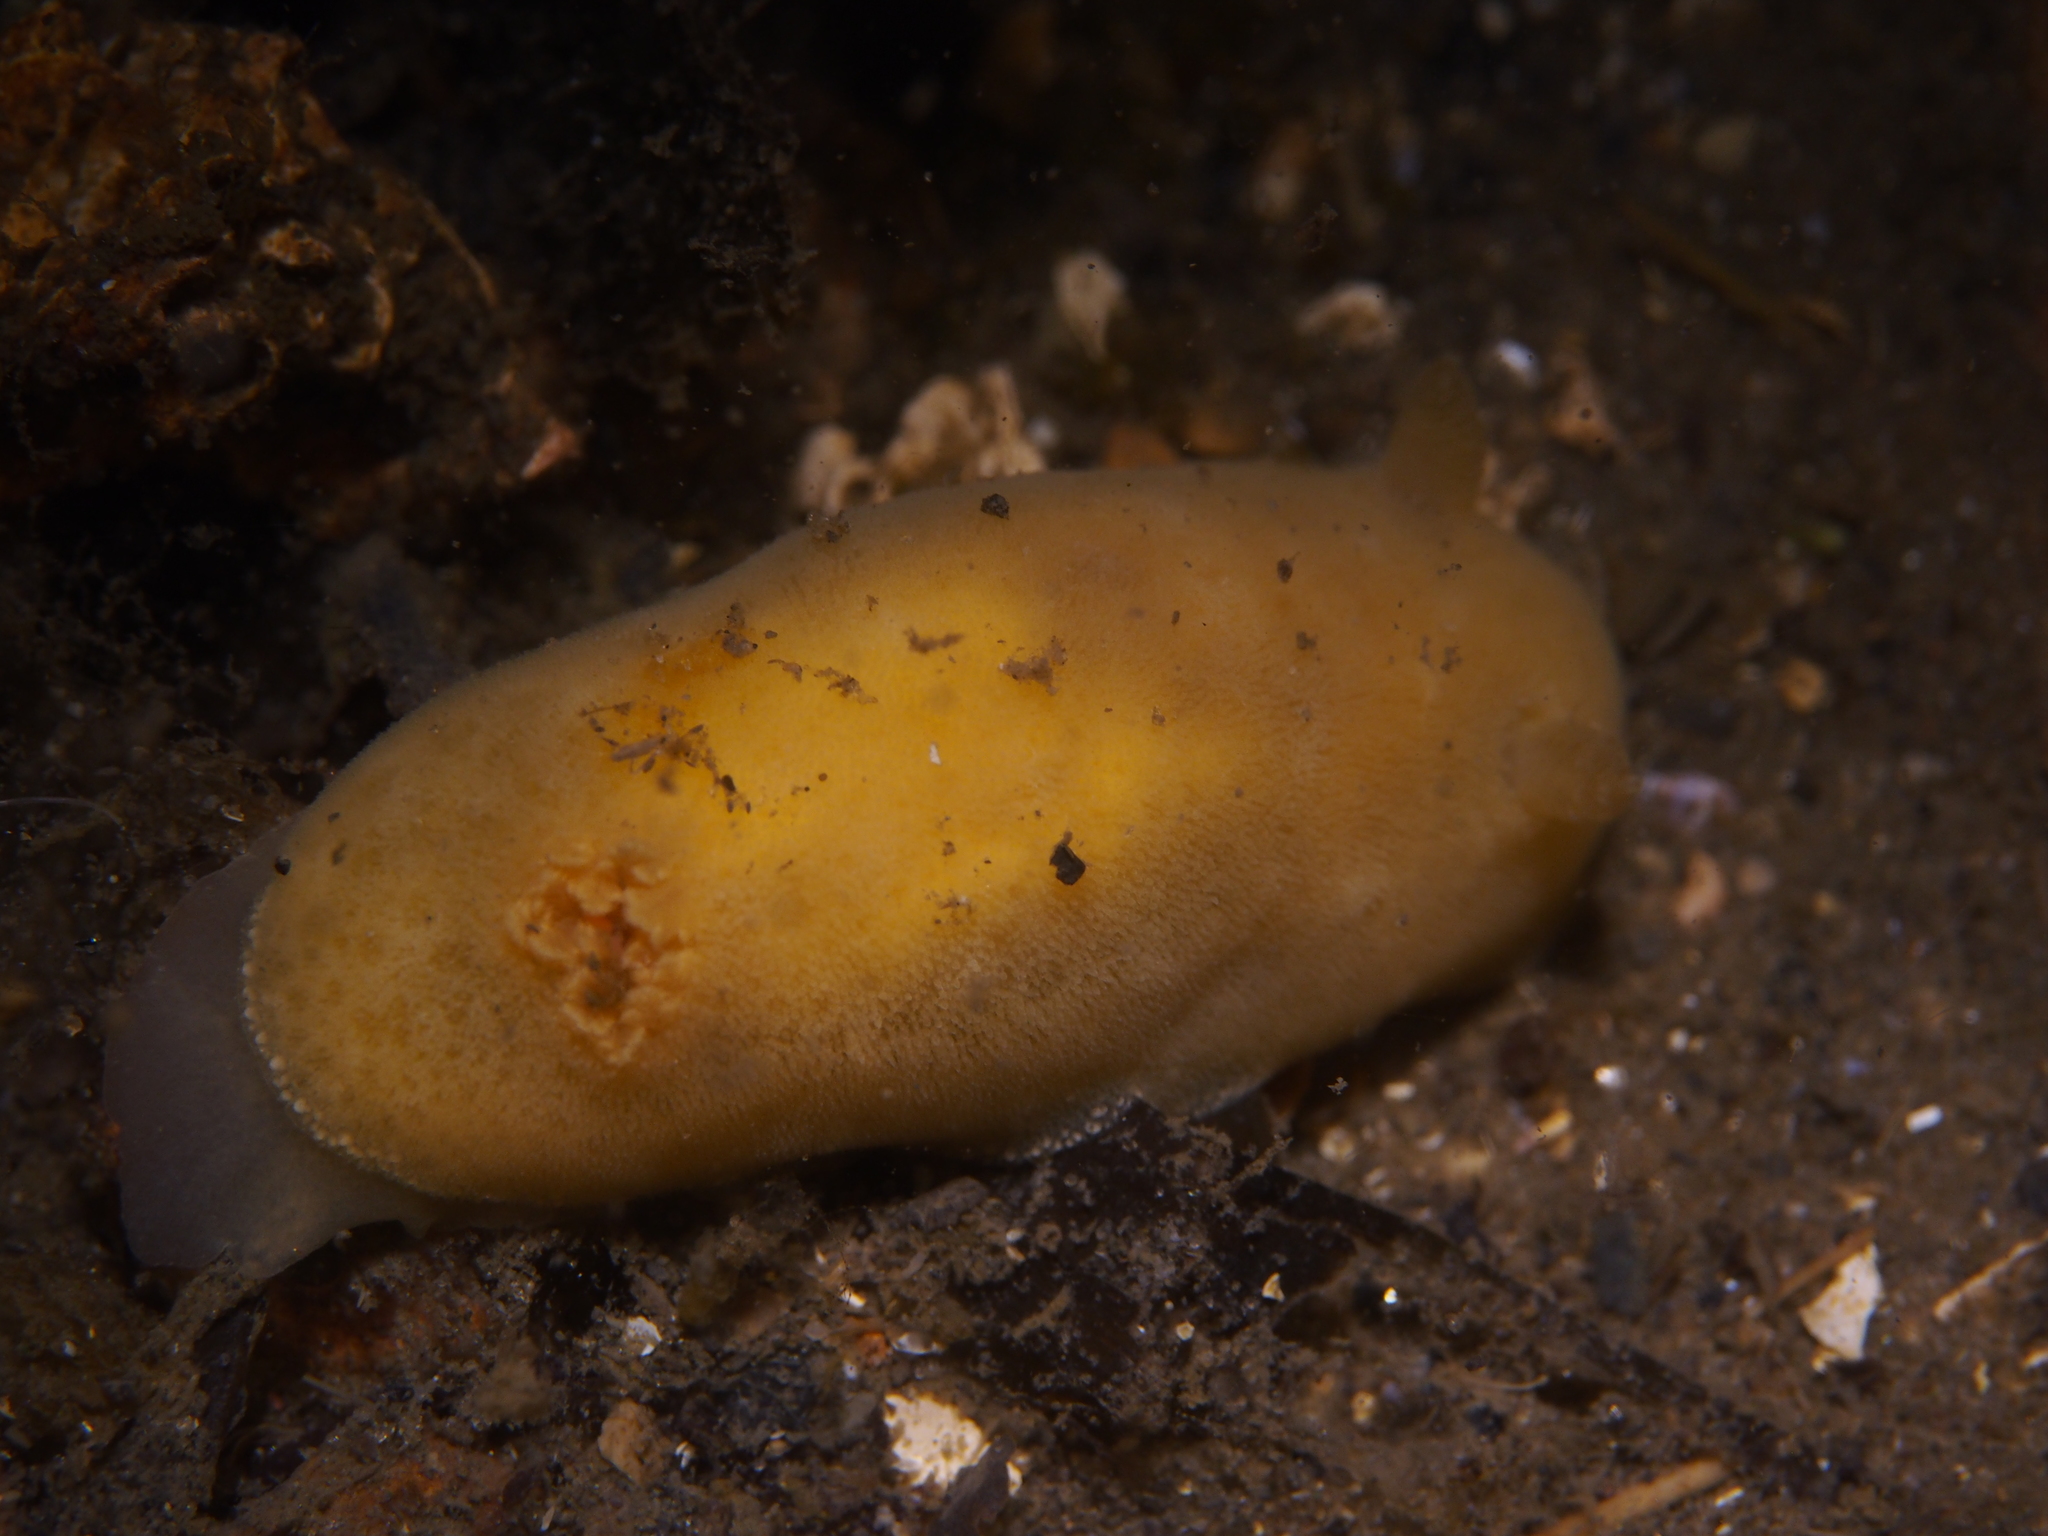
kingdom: Animalia
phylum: Mollusca
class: Gastropoda
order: Nudibranchia
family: Discodorididae
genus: Jorunna
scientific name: Jorunna tomentosa
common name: Grey sea slug
